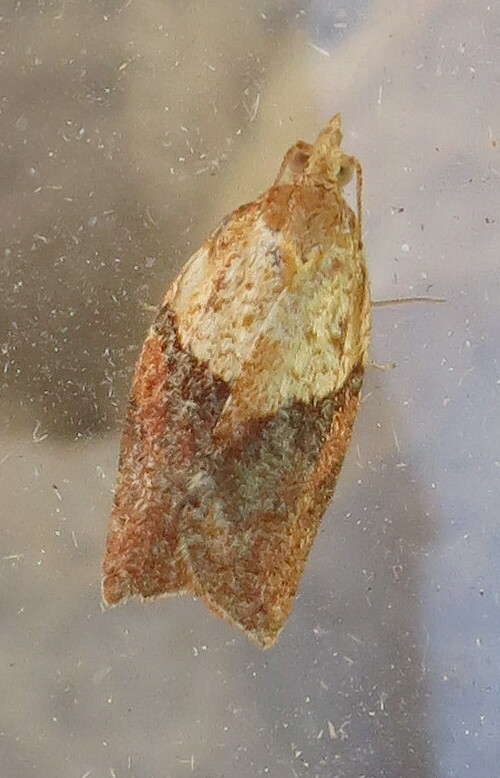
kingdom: Animalia
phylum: Arthropoda
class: Insecta
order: Lepidoptera
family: Tortricidae
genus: Epiphyas
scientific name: Epiphyas postvittana
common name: Light brown apple moth
